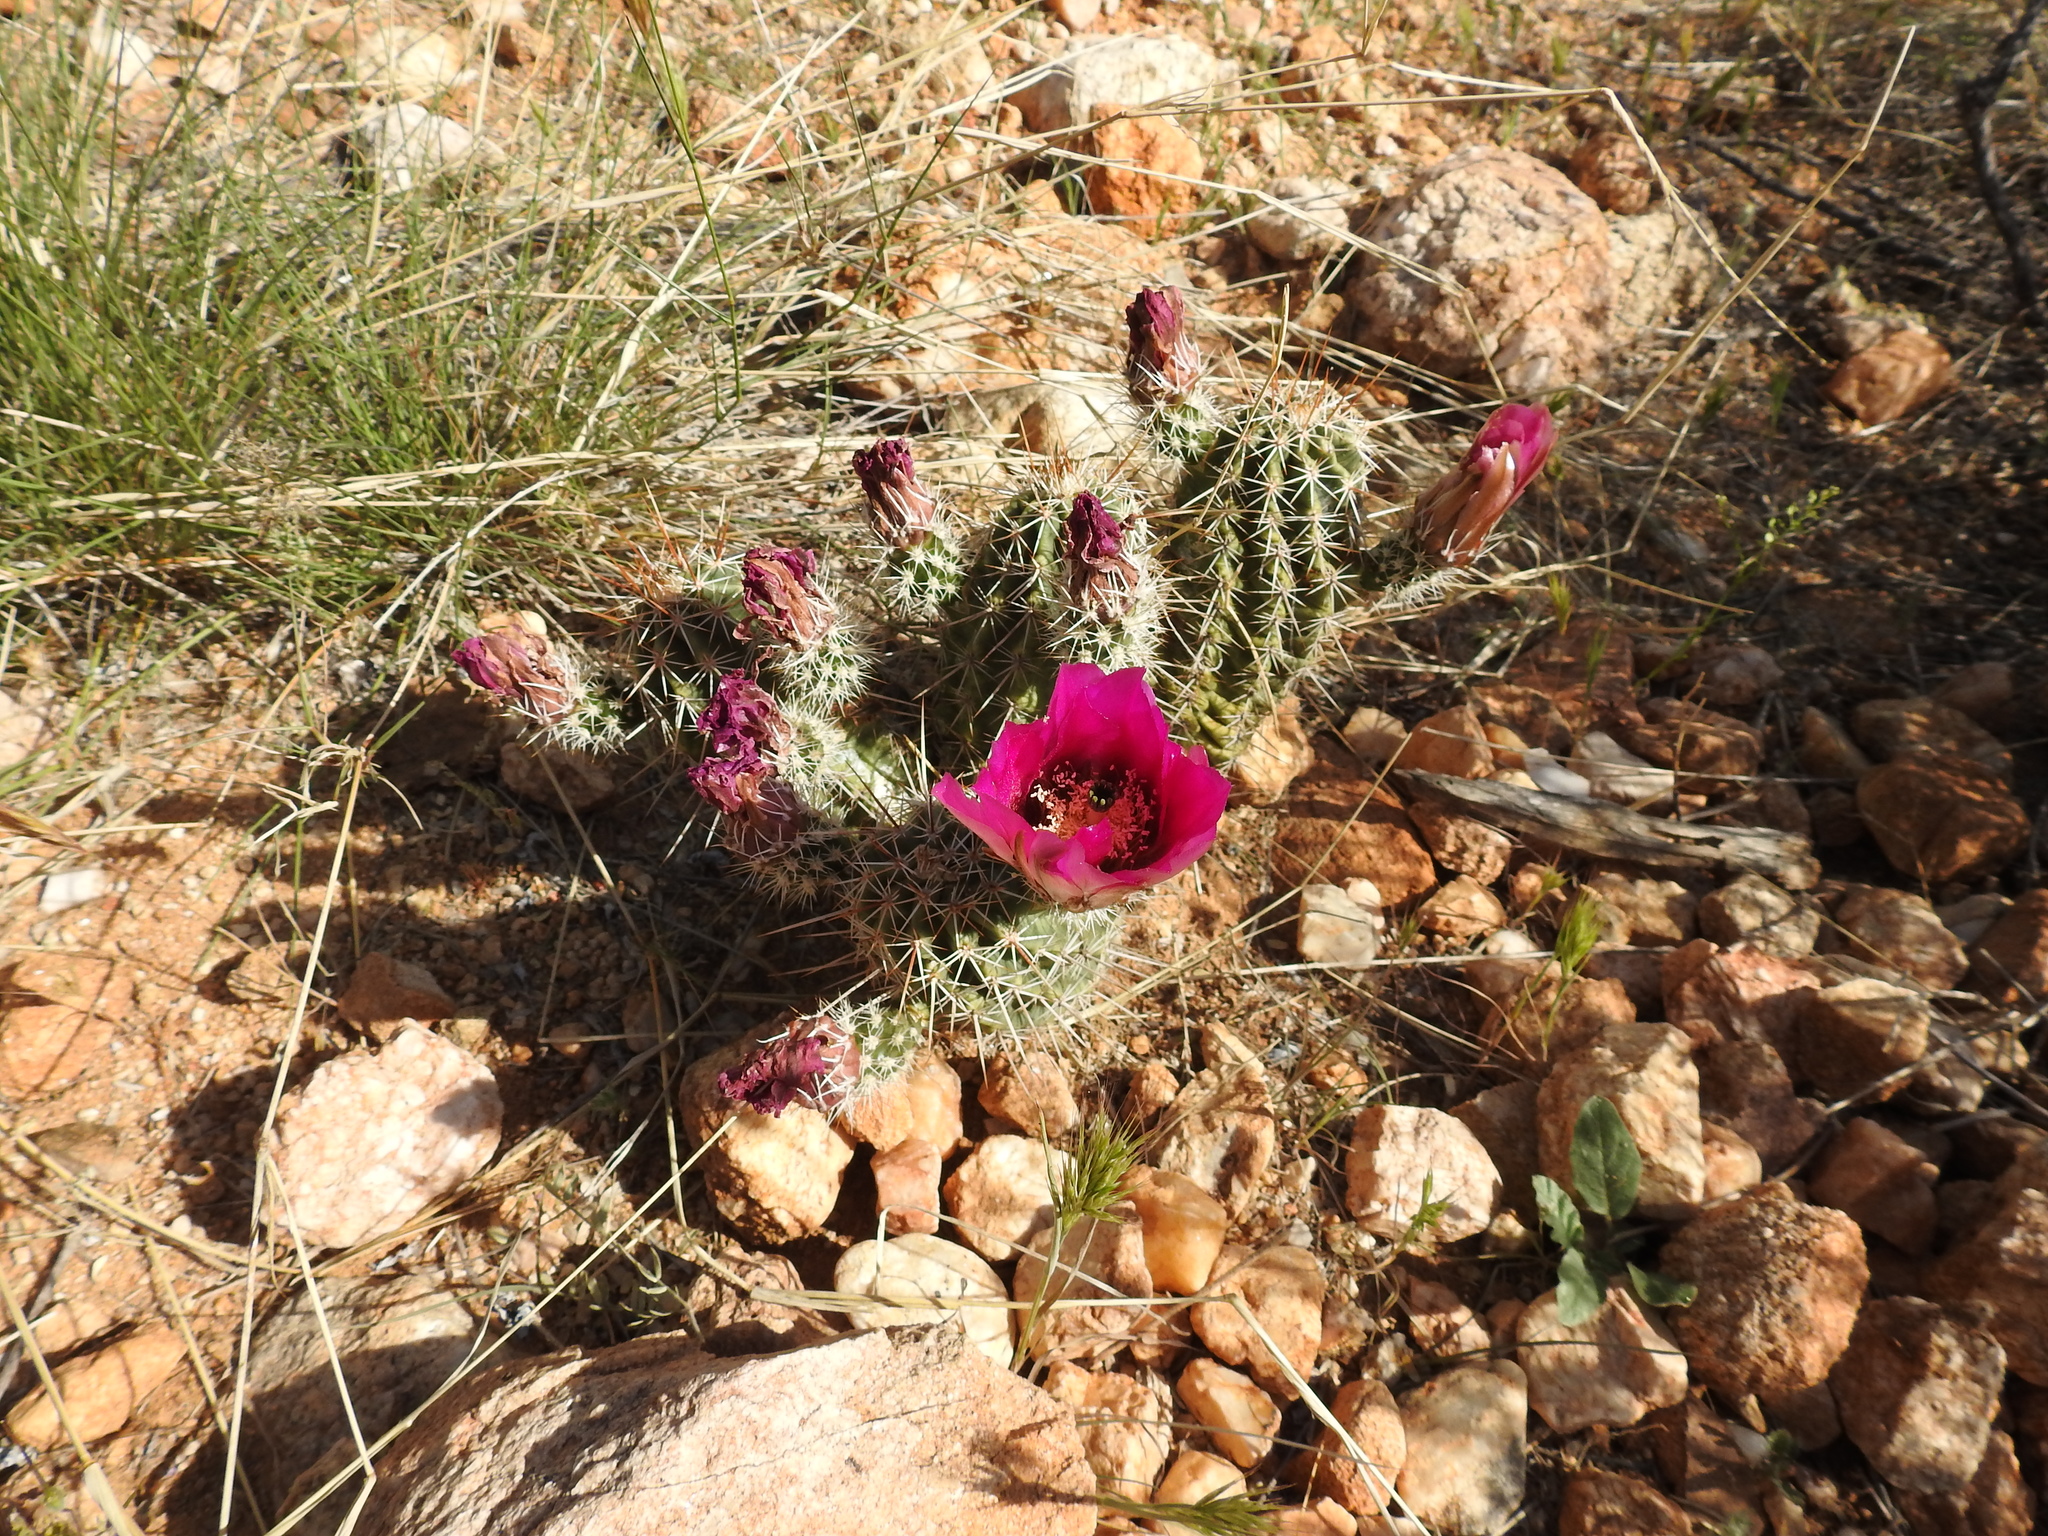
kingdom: Plantae
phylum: Tracheophyta
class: Magnoliopsida
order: Caryophyllales
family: Cactaceae
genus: Echinocereus
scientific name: Echinocereus fasciculatus
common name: Bundle hedgehog
